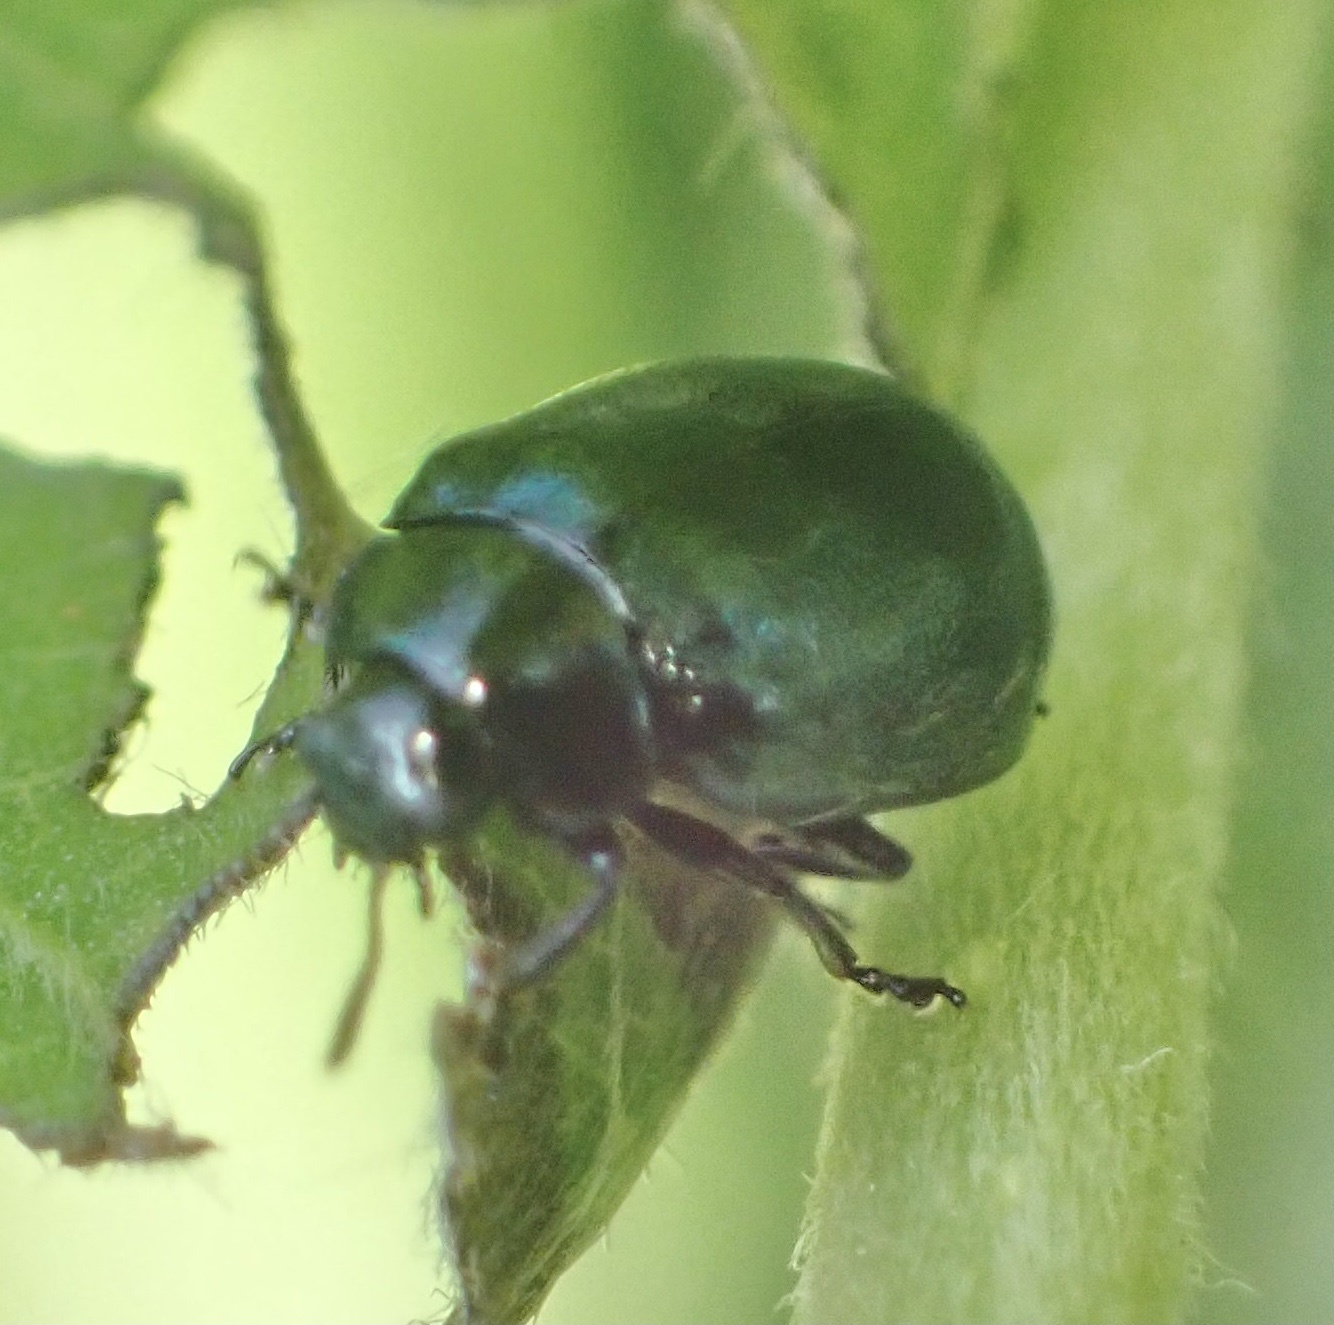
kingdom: Animalia
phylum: Arthropoda
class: Insecta
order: Coleoptera
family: Chrysomelidae
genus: Plagiodera
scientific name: Plagiodera versicolora
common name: Imported willow leaf beetle
